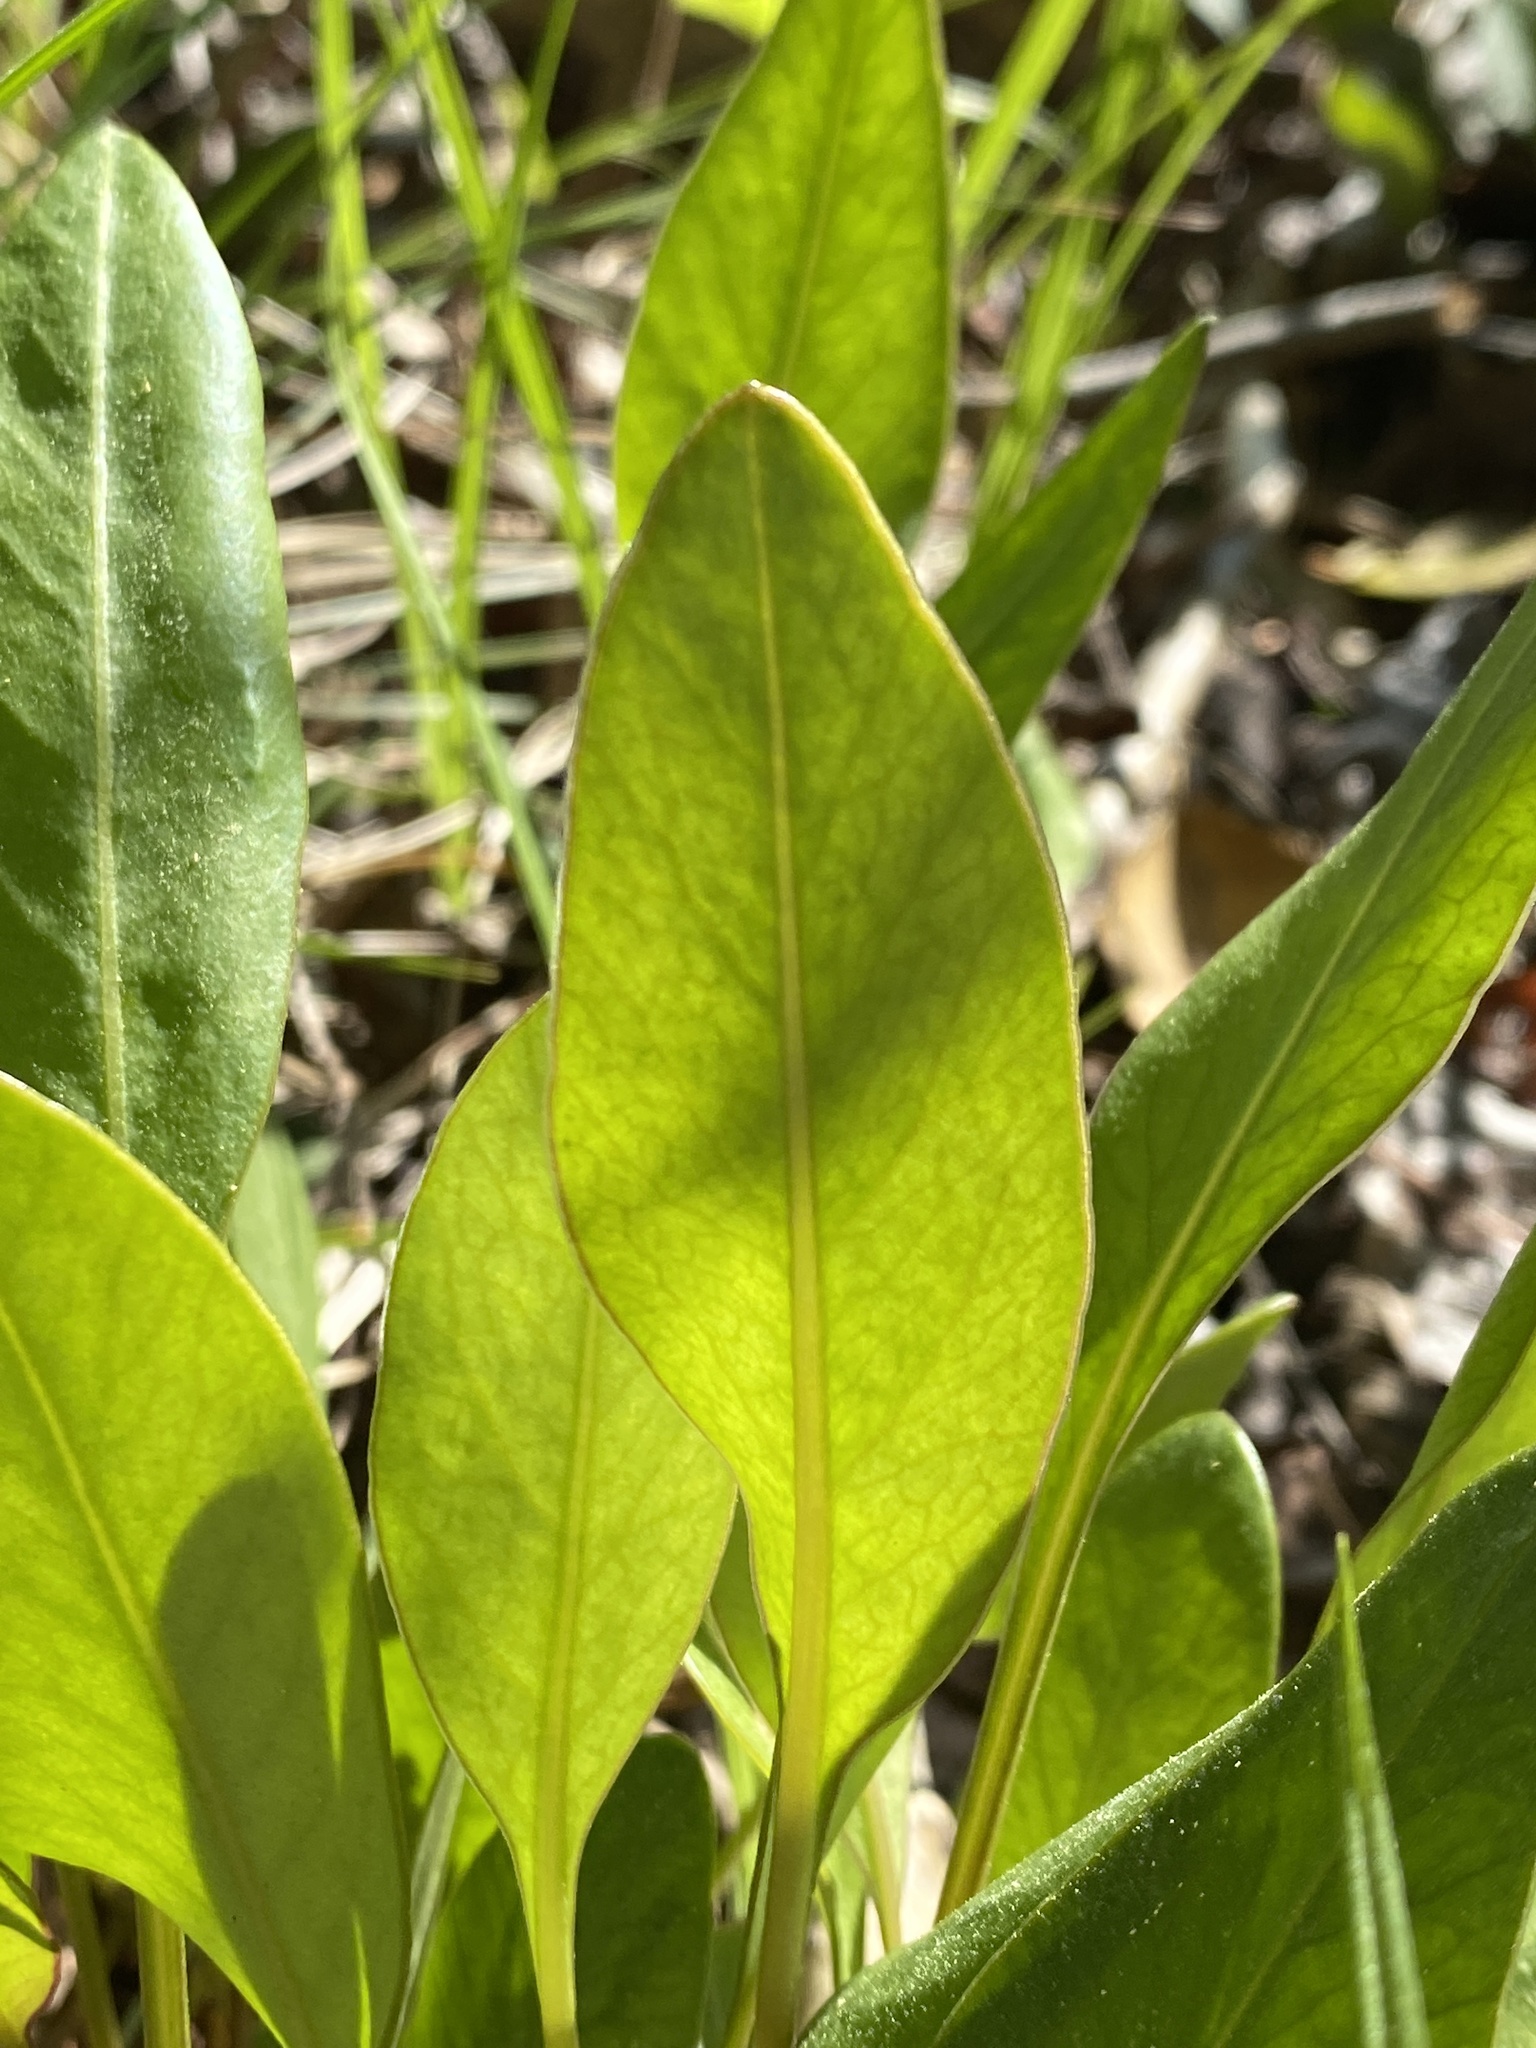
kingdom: Plantae
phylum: Tracheophyta
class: Magnoliopsida
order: Asterales
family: Asteraceae
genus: Coreopsis
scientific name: Coreopsis gladiata
